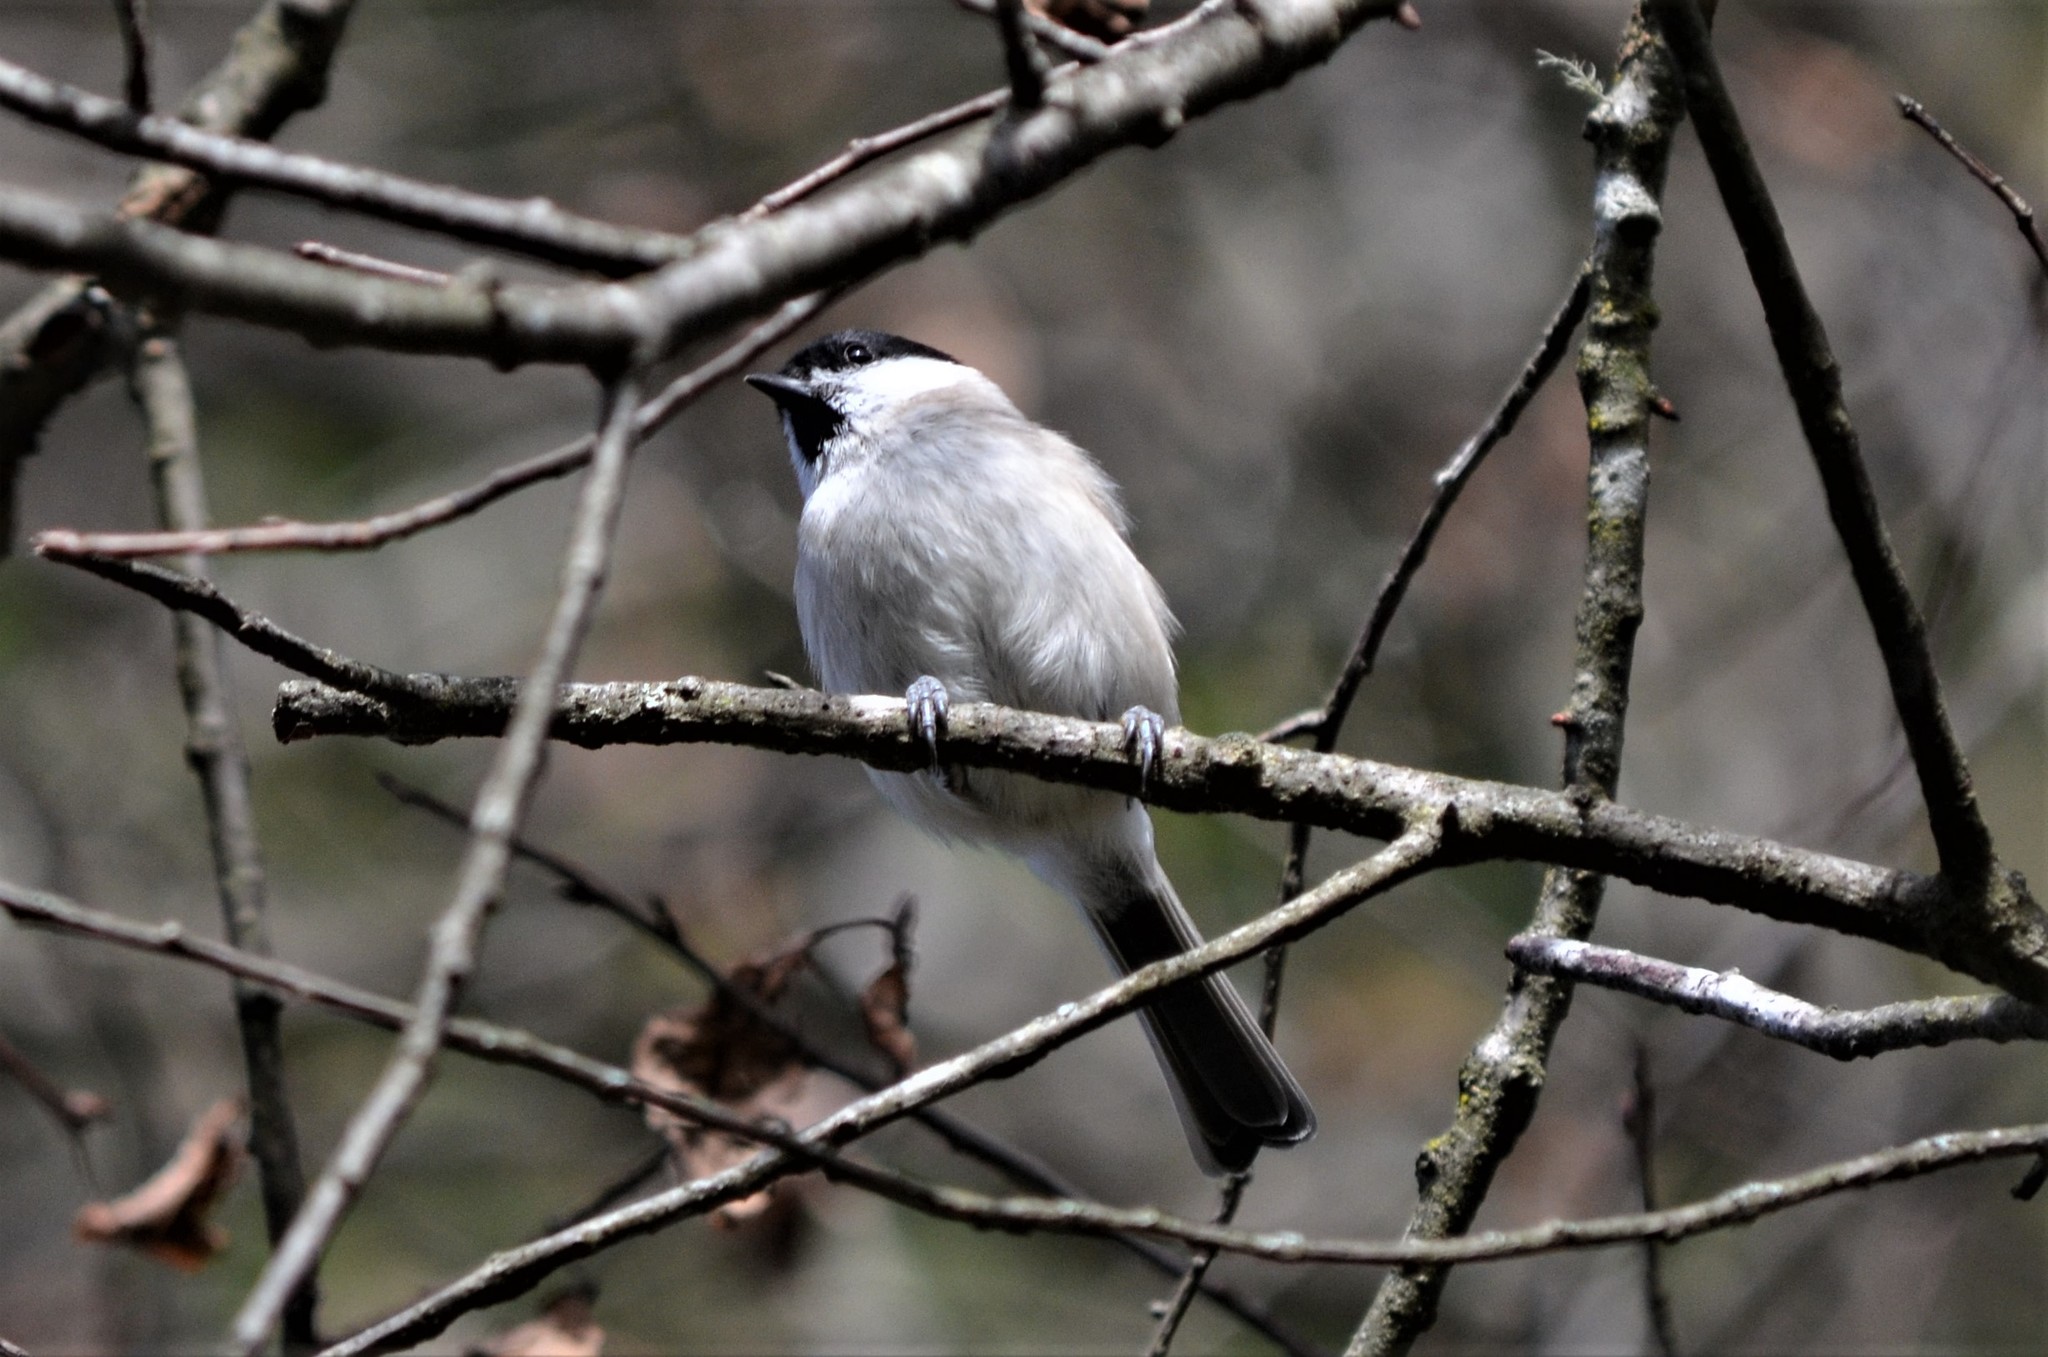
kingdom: Animalia
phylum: Chordata
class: Aves
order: Passeriformes
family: Paridae
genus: Poecile
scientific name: Poecile montanus
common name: Willow tit
